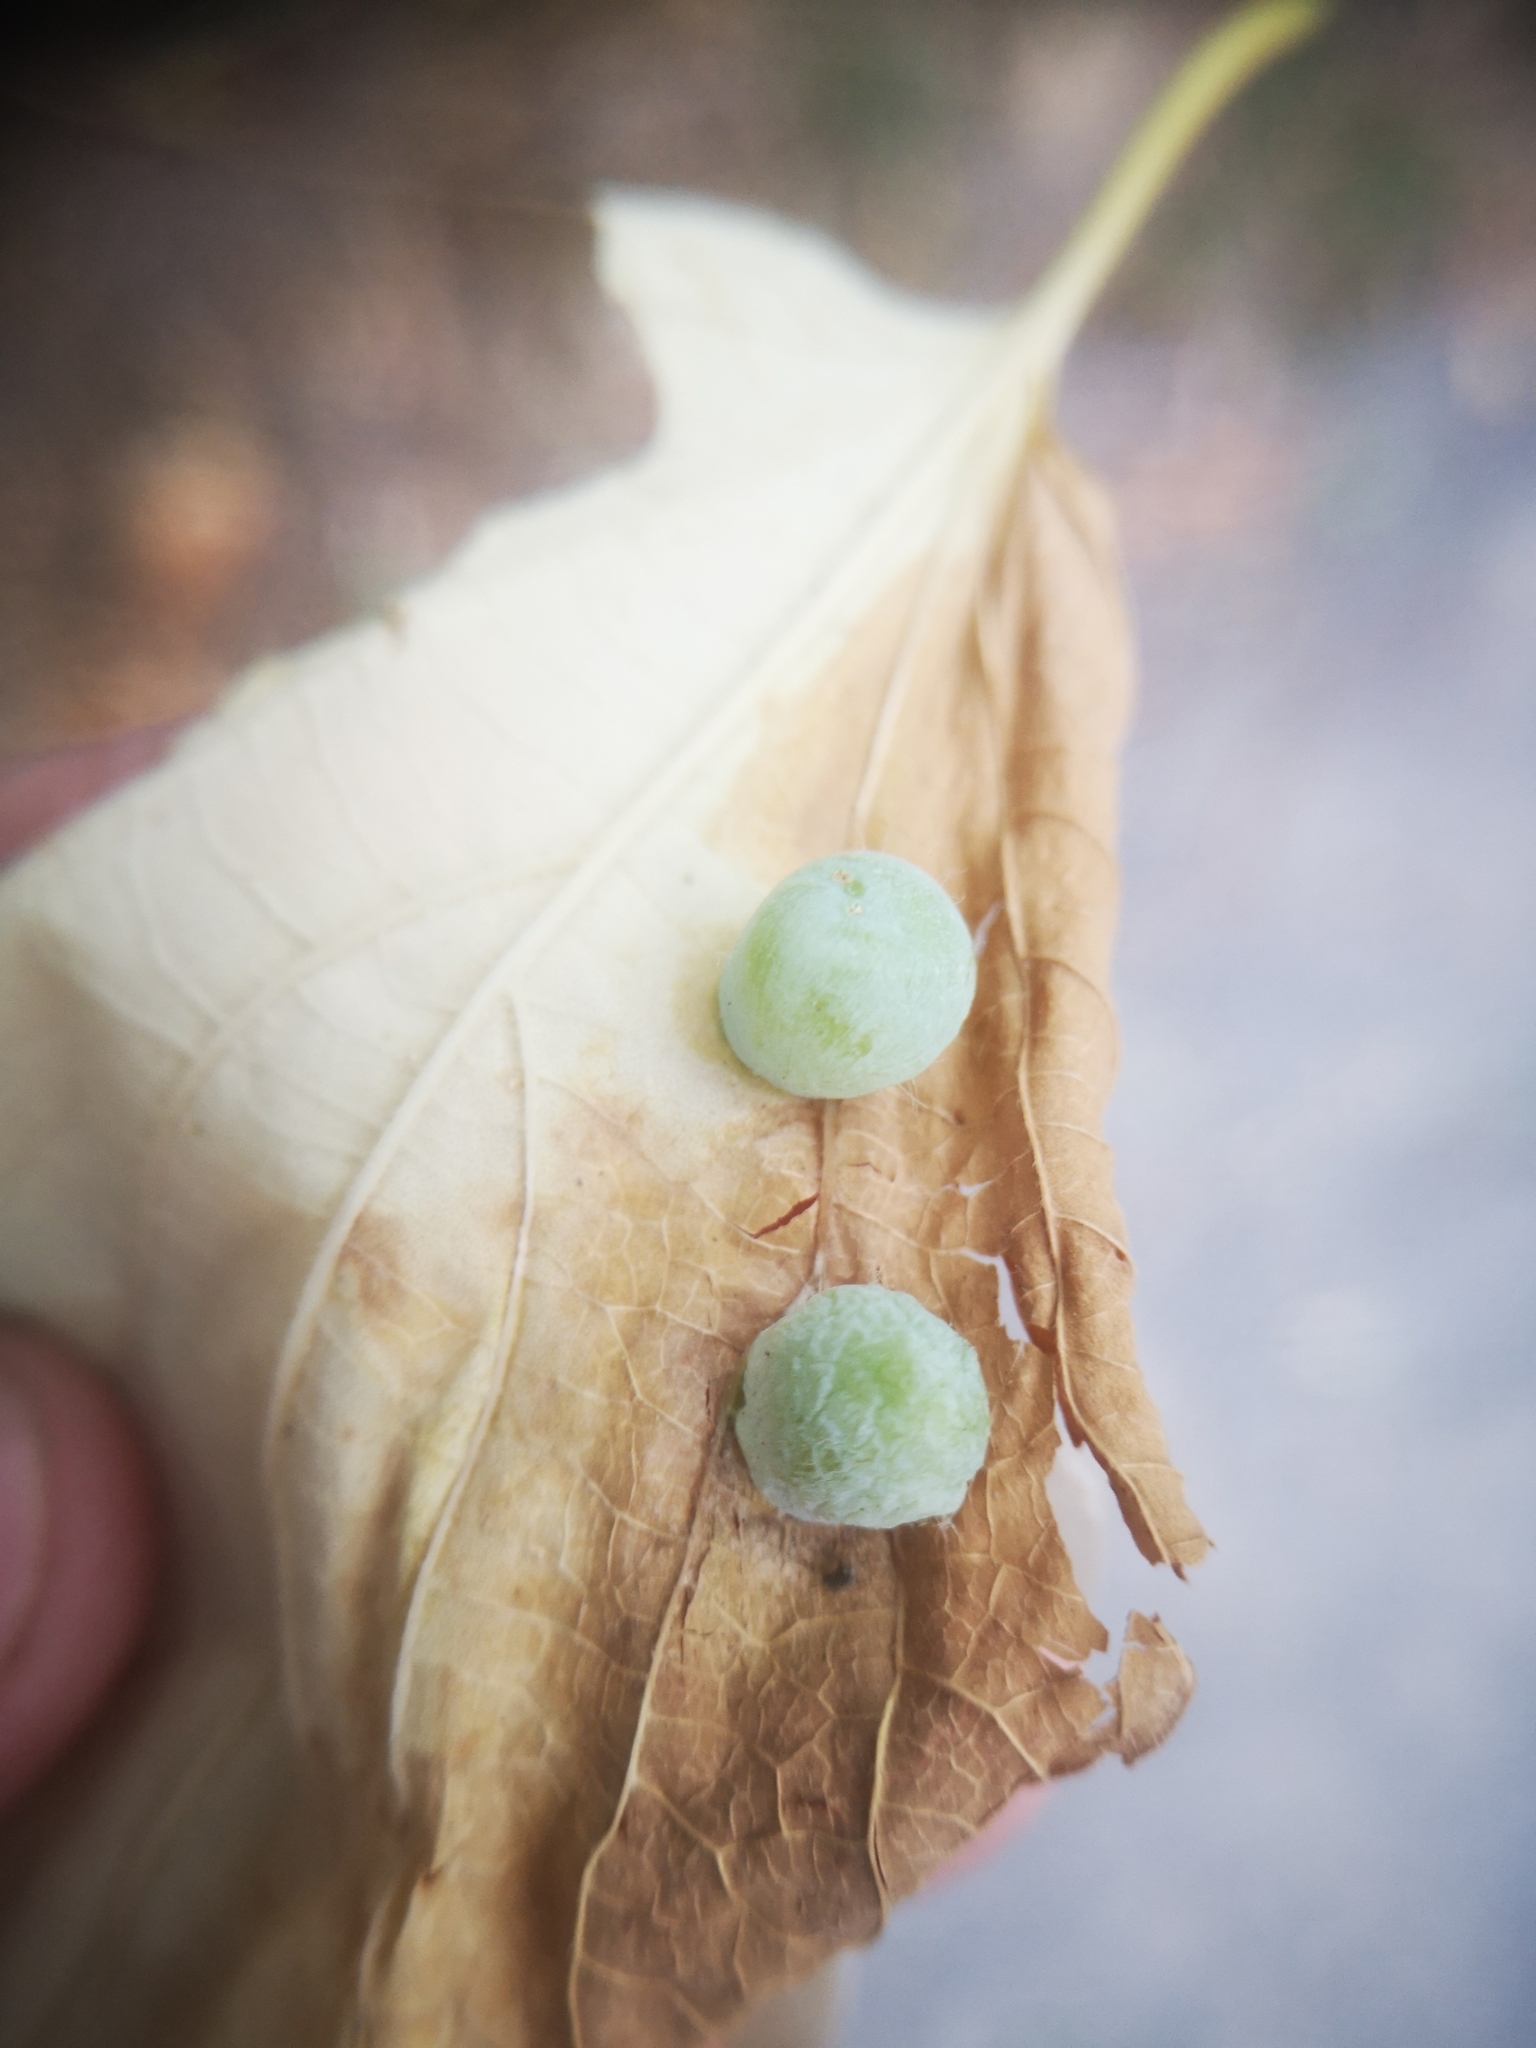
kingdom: Animalia
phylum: Arthropoda
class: Insecta
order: Hemiptera
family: Aphalaridae
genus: Pachypsylla
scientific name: Pachypsylla celtidismamma
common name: Hackberry nipplegall psyllid
